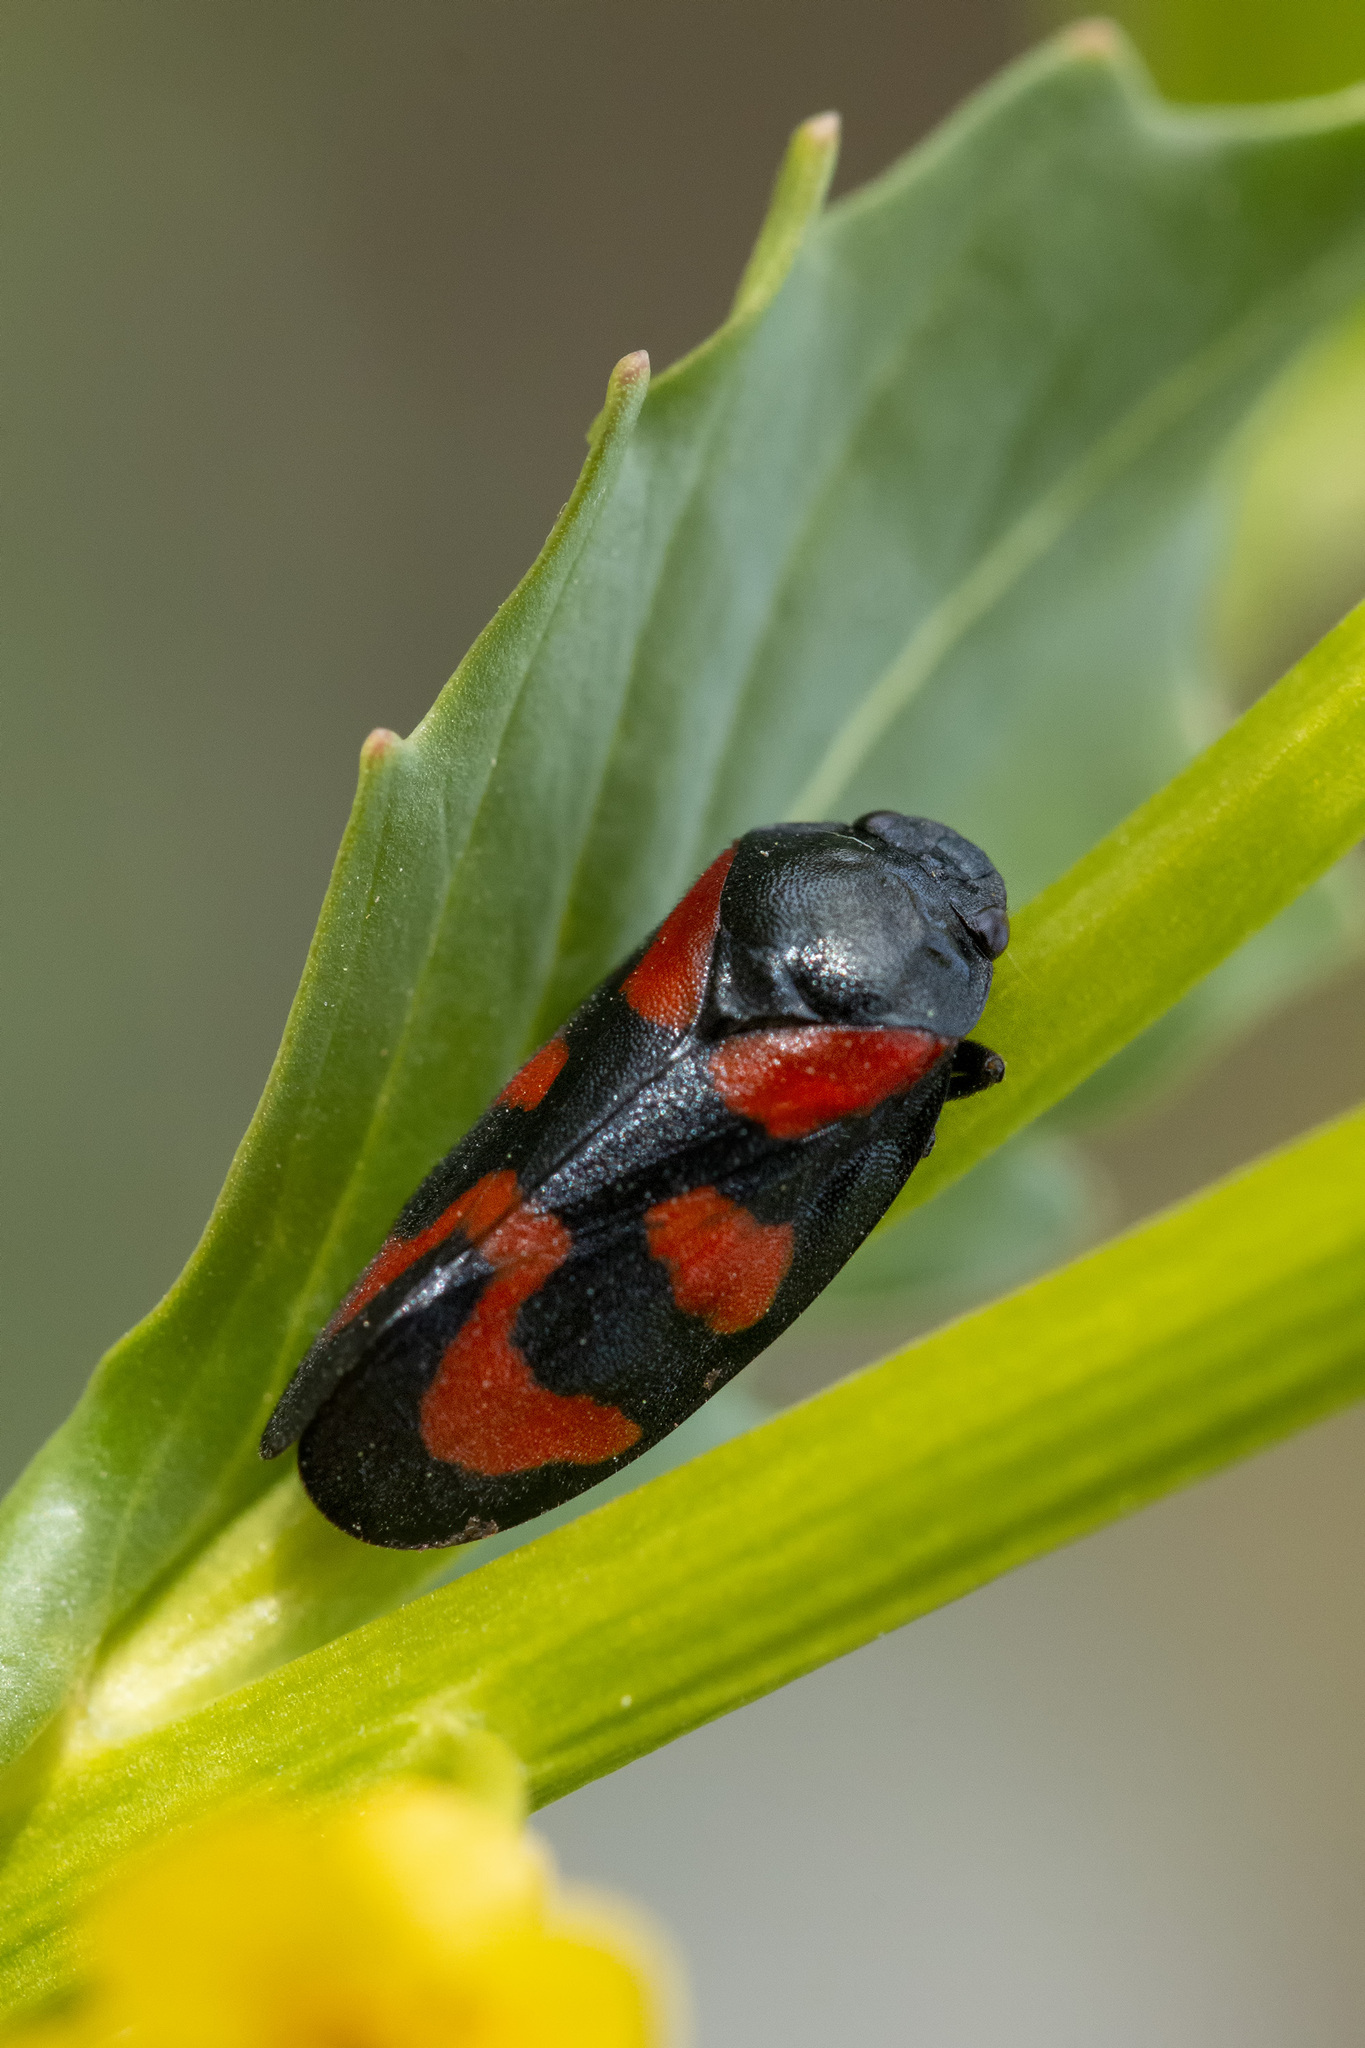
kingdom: Animalia
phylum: Arthropoda
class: Insecta
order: Hemiptera
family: Cercopidae
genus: Cercopis
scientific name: Cercopis vulnerata
